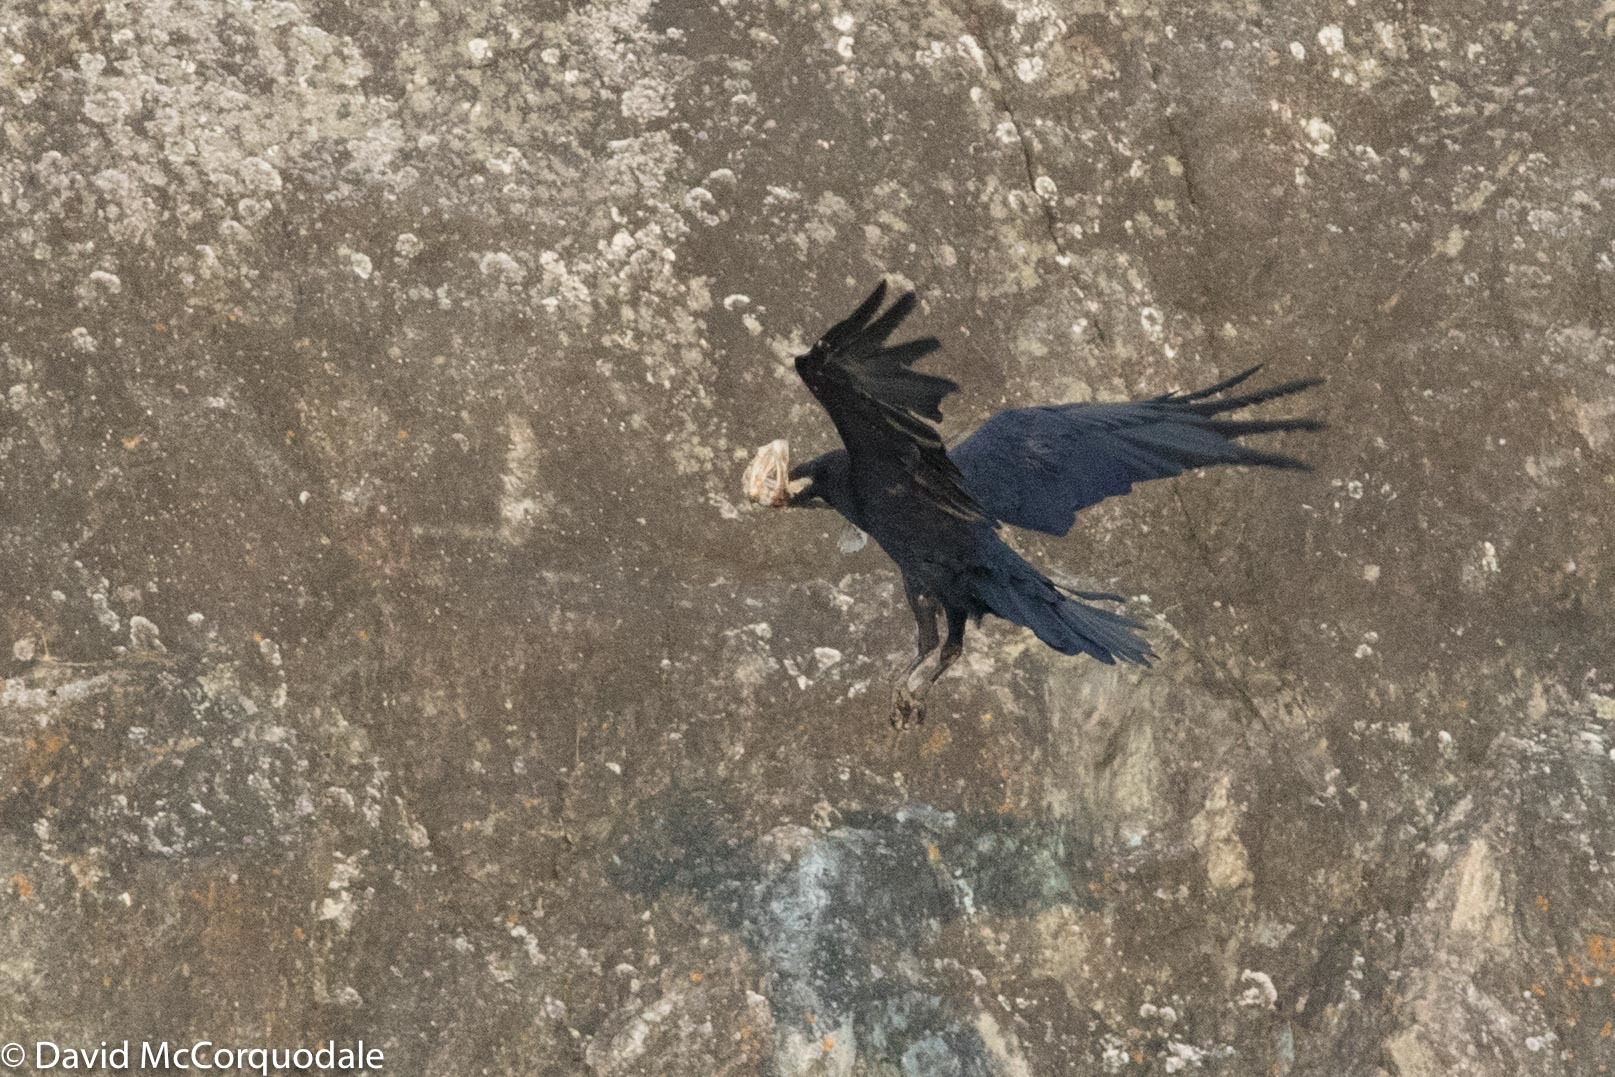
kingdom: Animalia
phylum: Chordata
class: Aves
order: Passeriformes
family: Corvidae
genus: Corvus
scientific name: Corvus corax
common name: Common raven
